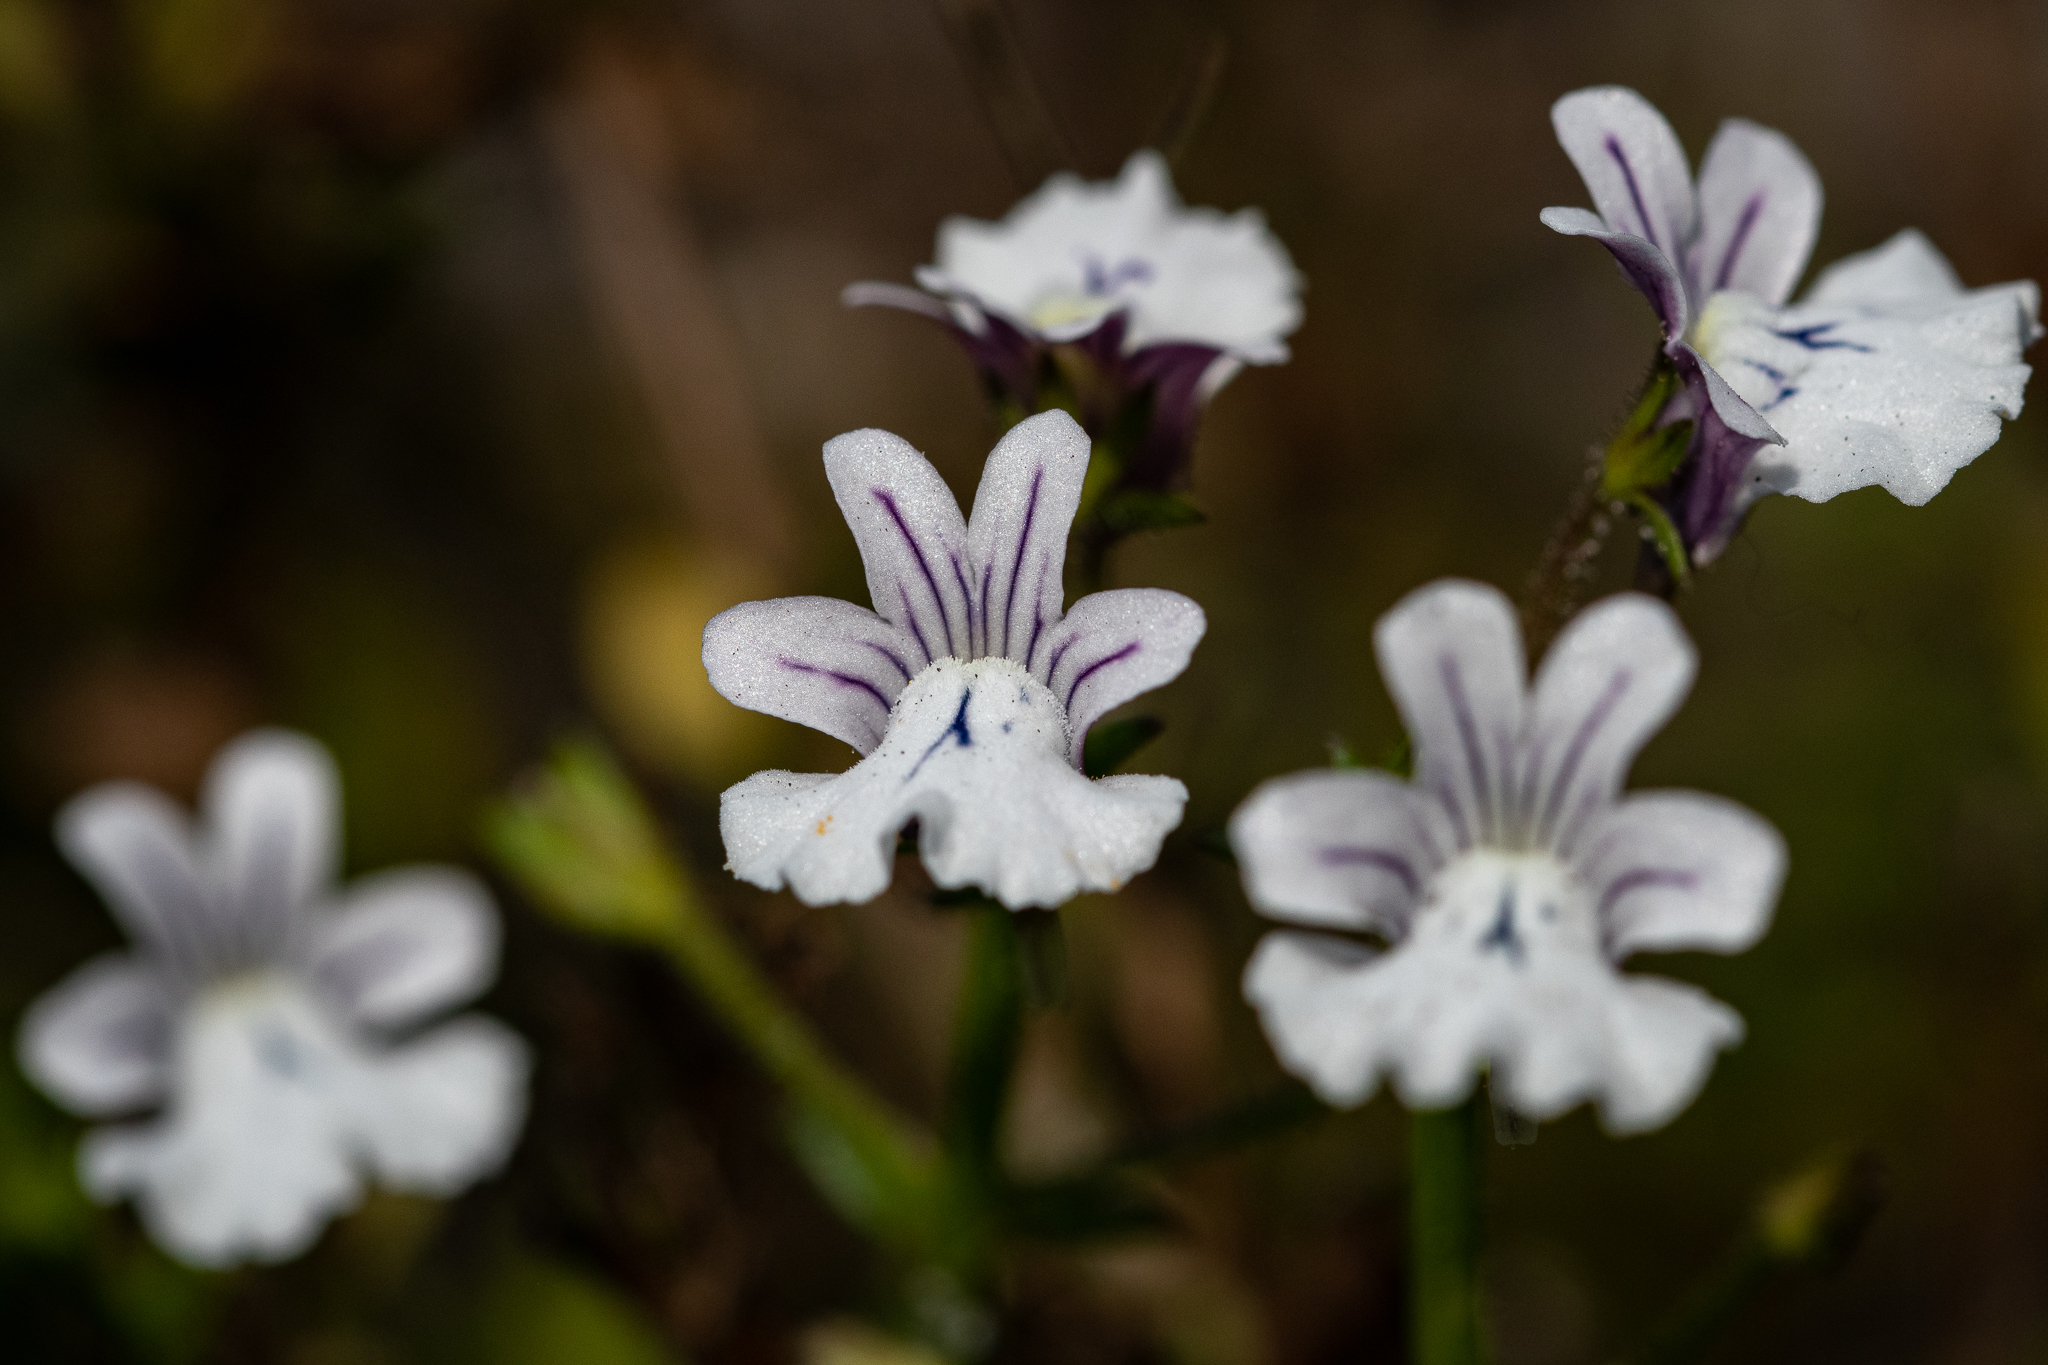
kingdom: Plantae
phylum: Tracheophyta
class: Magnoliopsida
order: Lamiales
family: Scrophulariaceae
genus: Nemesia
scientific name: Nemesia diffusa
